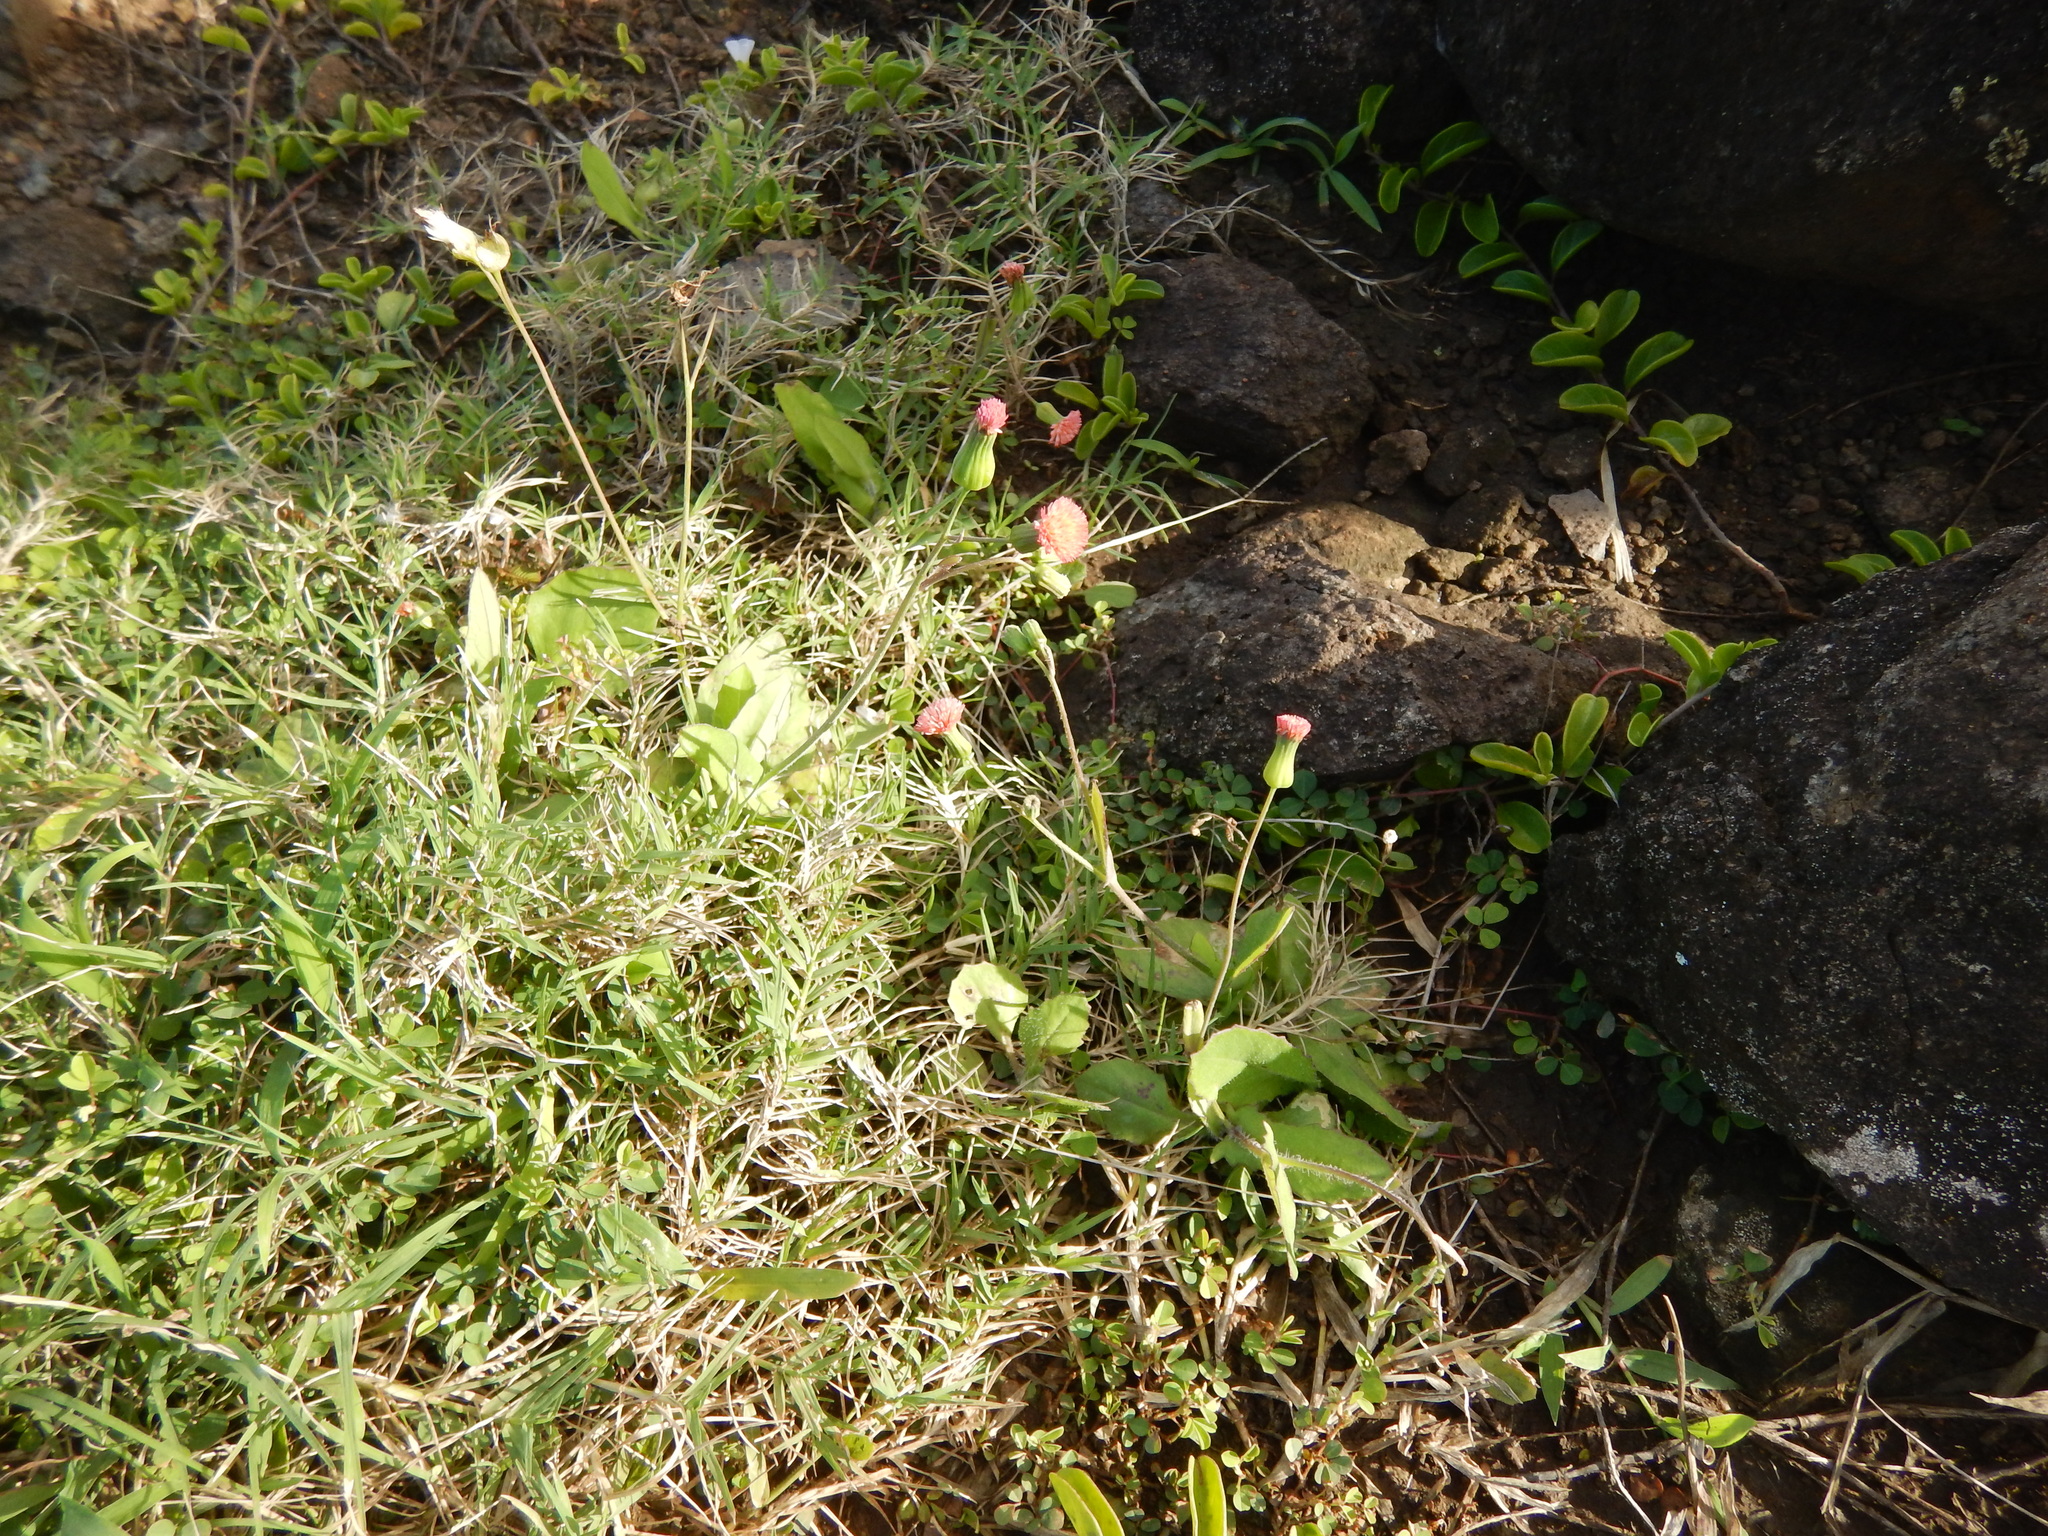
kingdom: Plantae
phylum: Tracheophyta
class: Magnoliopsida
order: Asterales
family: Asteraceae
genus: Emilia
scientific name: Emilia fosbergii
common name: Florida tasselflower
